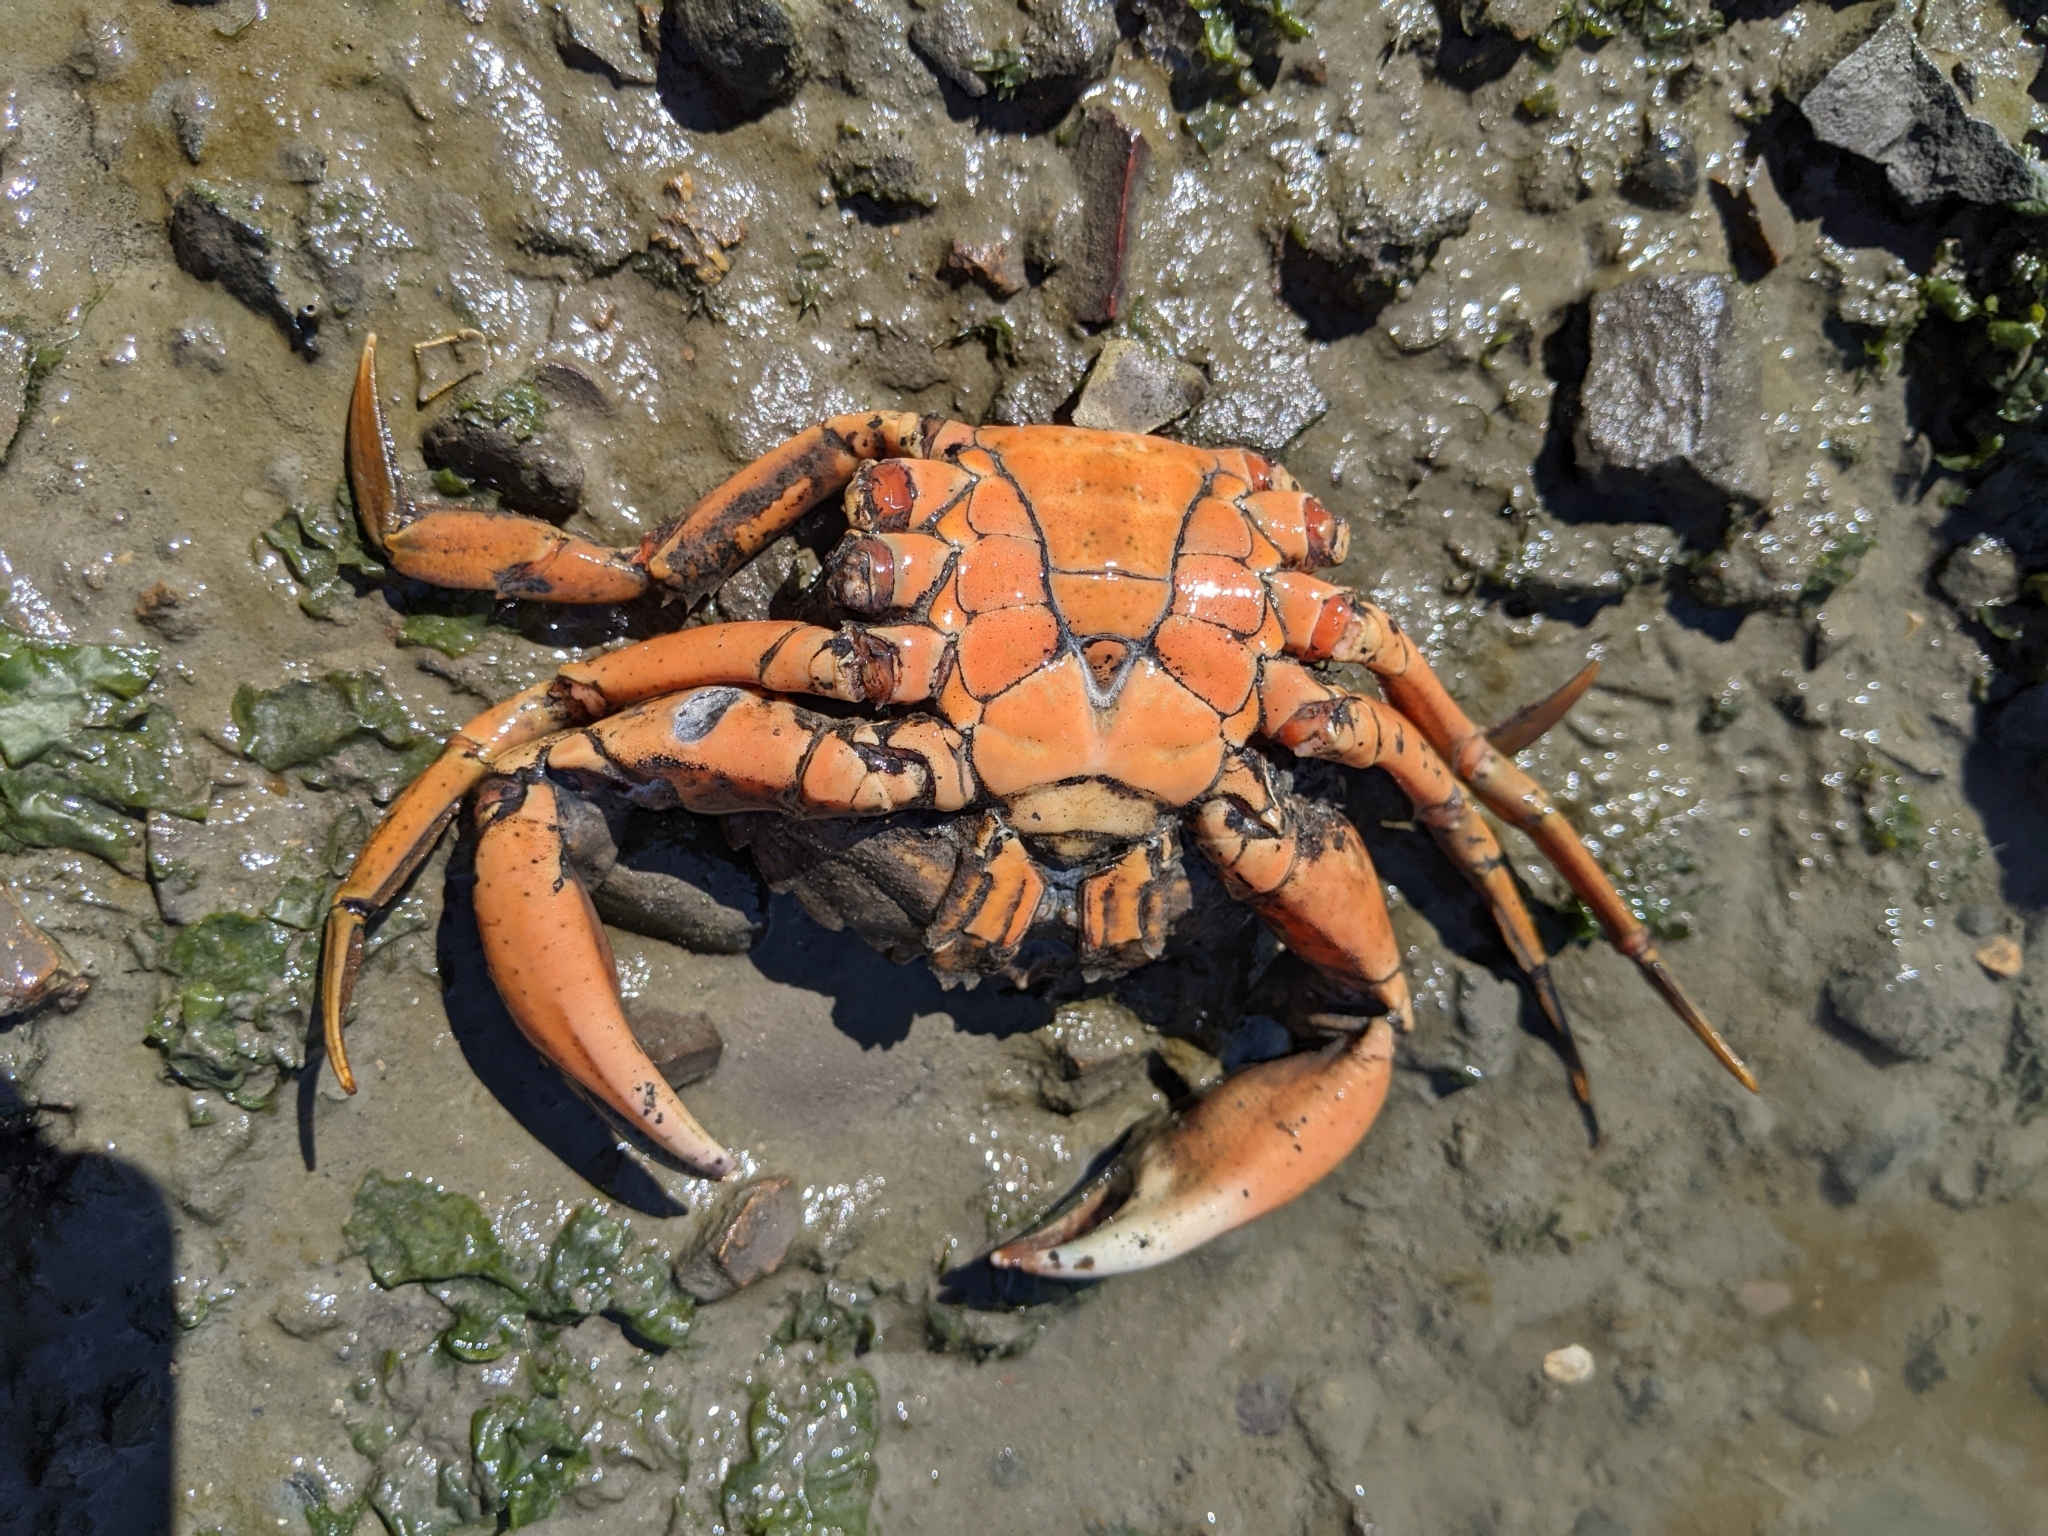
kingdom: Animalia
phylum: Arthropoda
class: Malacostraca
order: Decapoda
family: Carcinidae
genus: Carcinus
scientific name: Carcinus maenas
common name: European green crab
